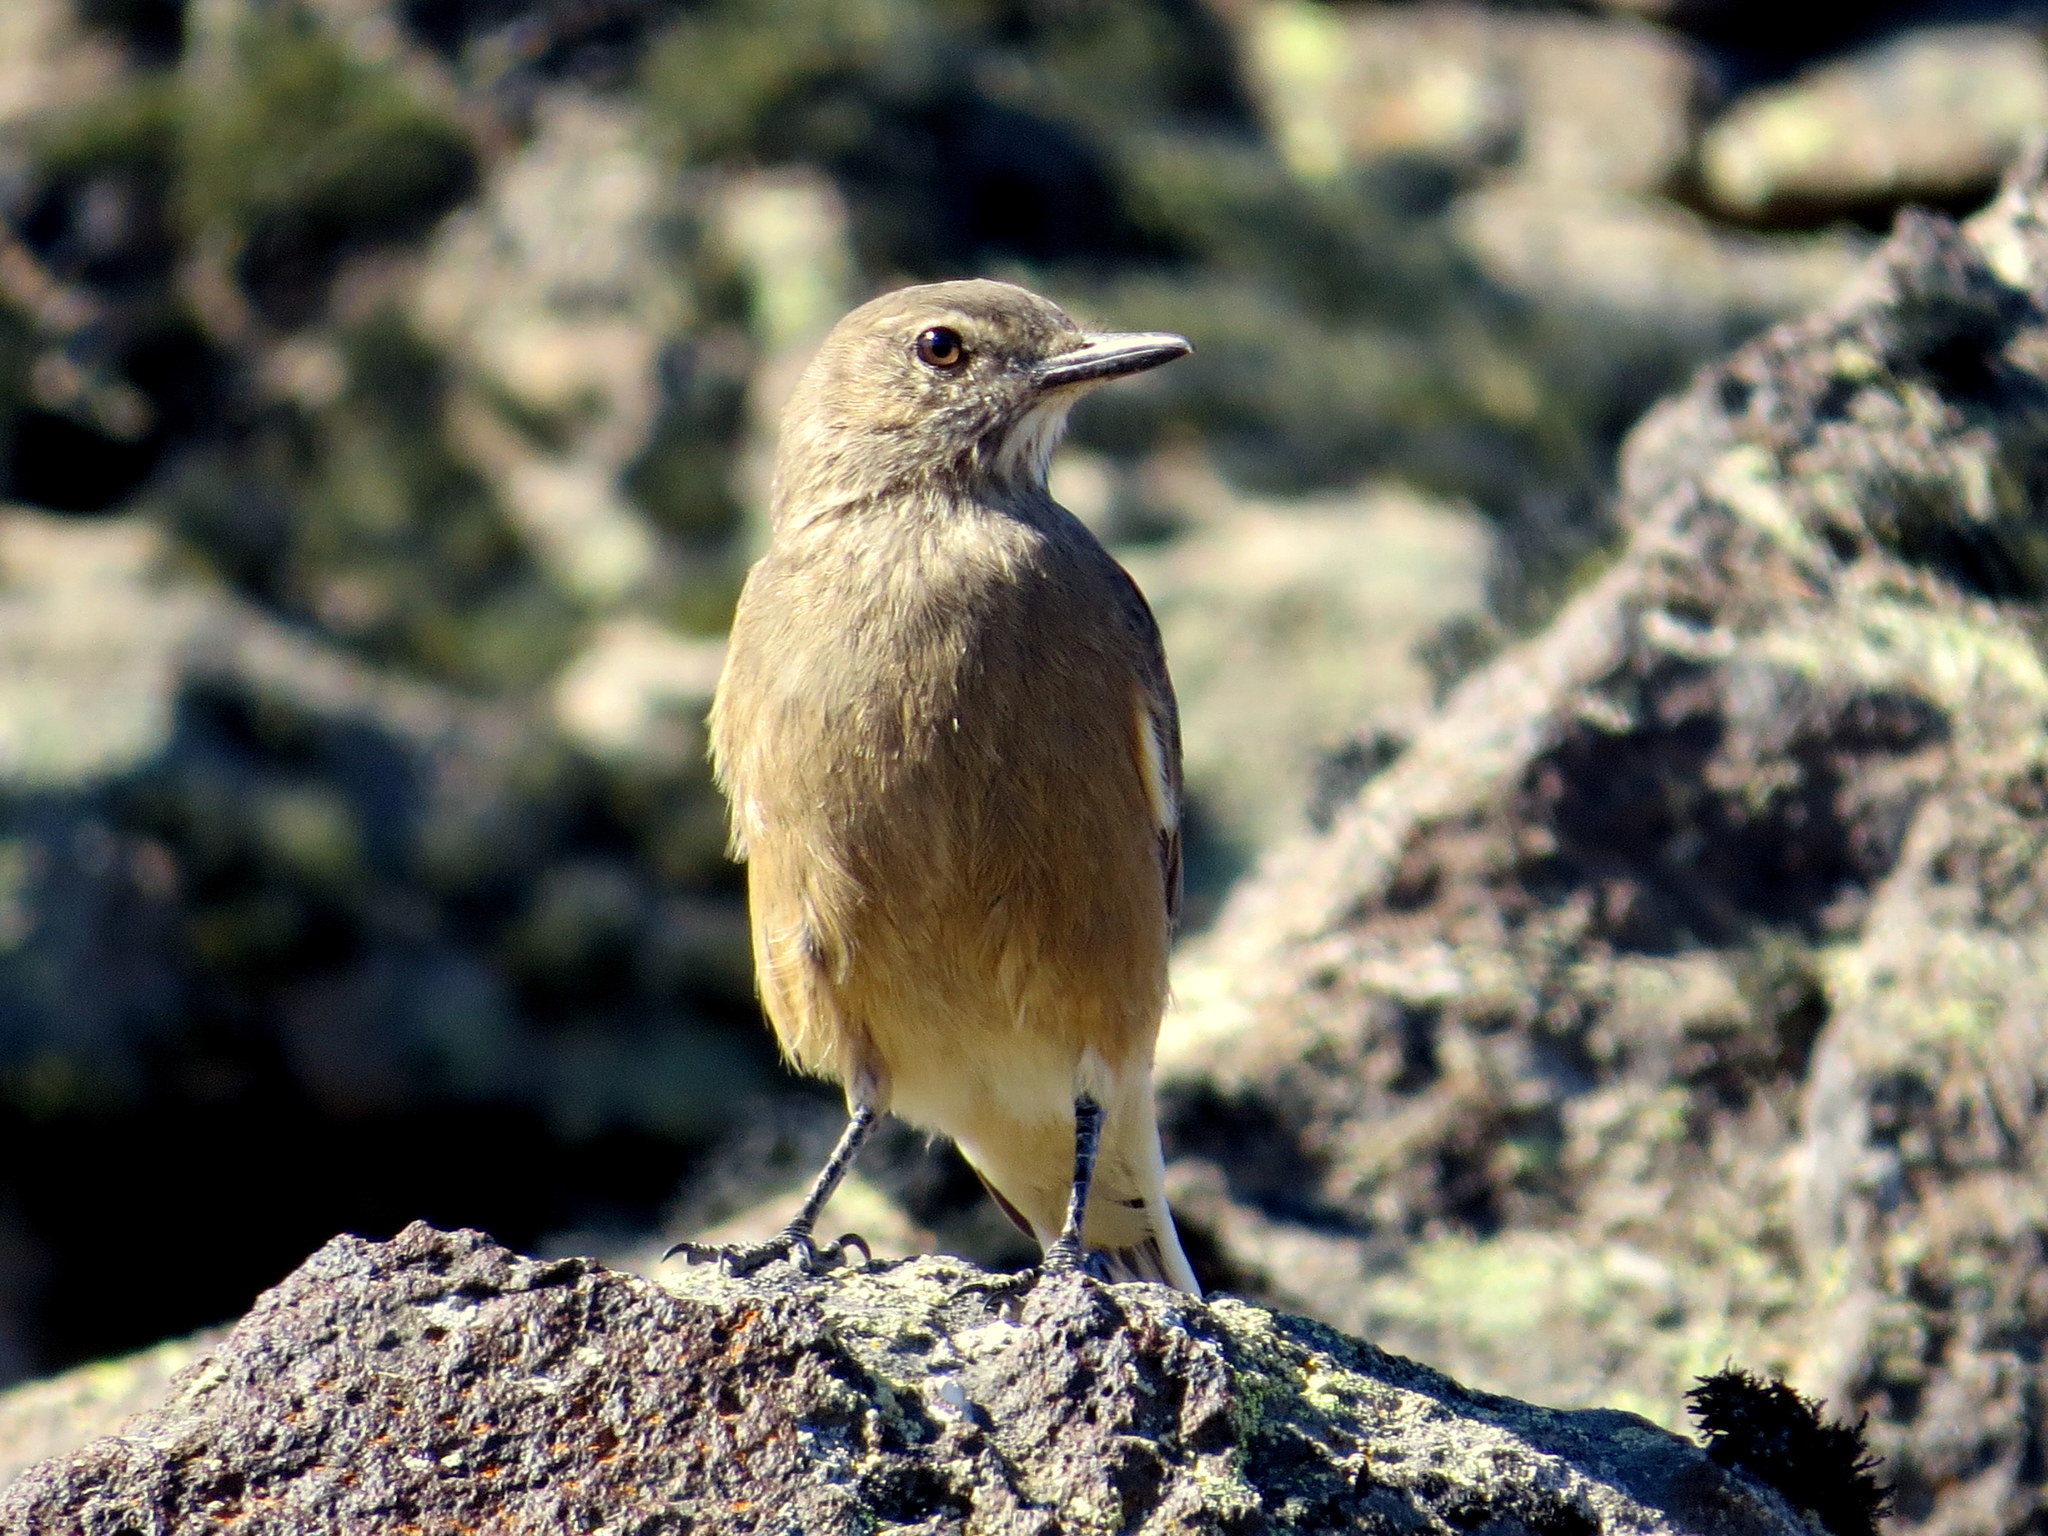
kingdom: Animalia
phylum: Chordata
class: Aves
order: Passeriformes
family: Tyrannidae
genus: Agriornis
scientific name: Agriornis montanus
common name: Black-billed shrike-tyrant
